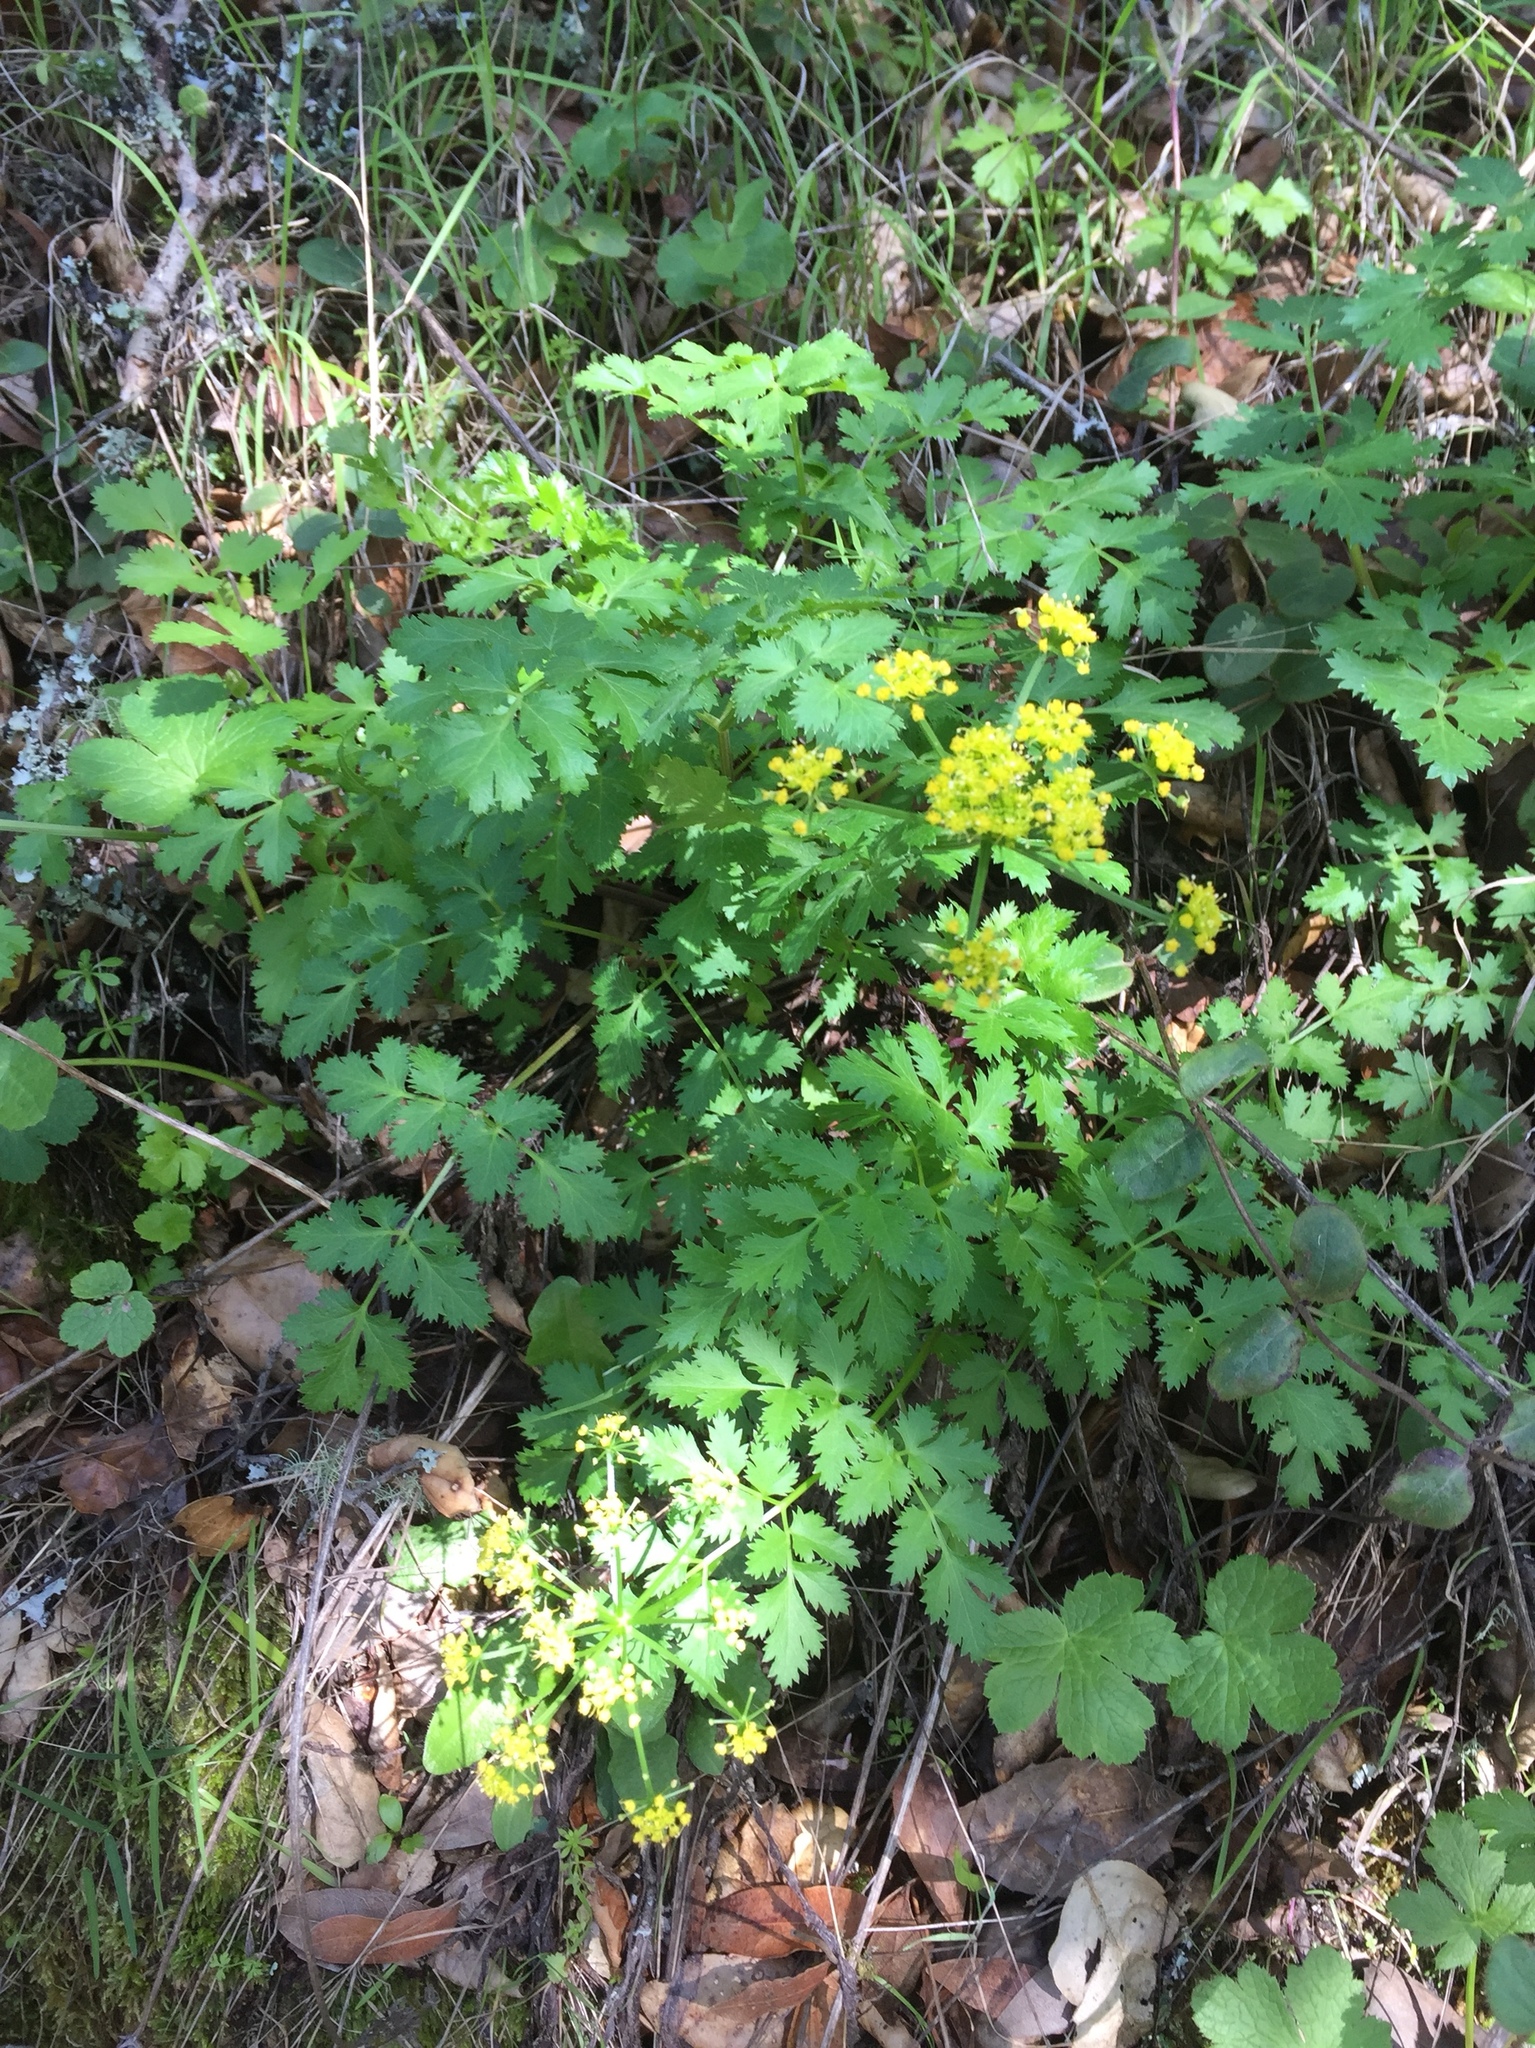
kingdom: Plantae
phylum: Tracheophyta
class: Magnoliopsida
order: Apiales
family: Apiaceae
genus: Tauschia
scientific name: Tauschia kelloggii
